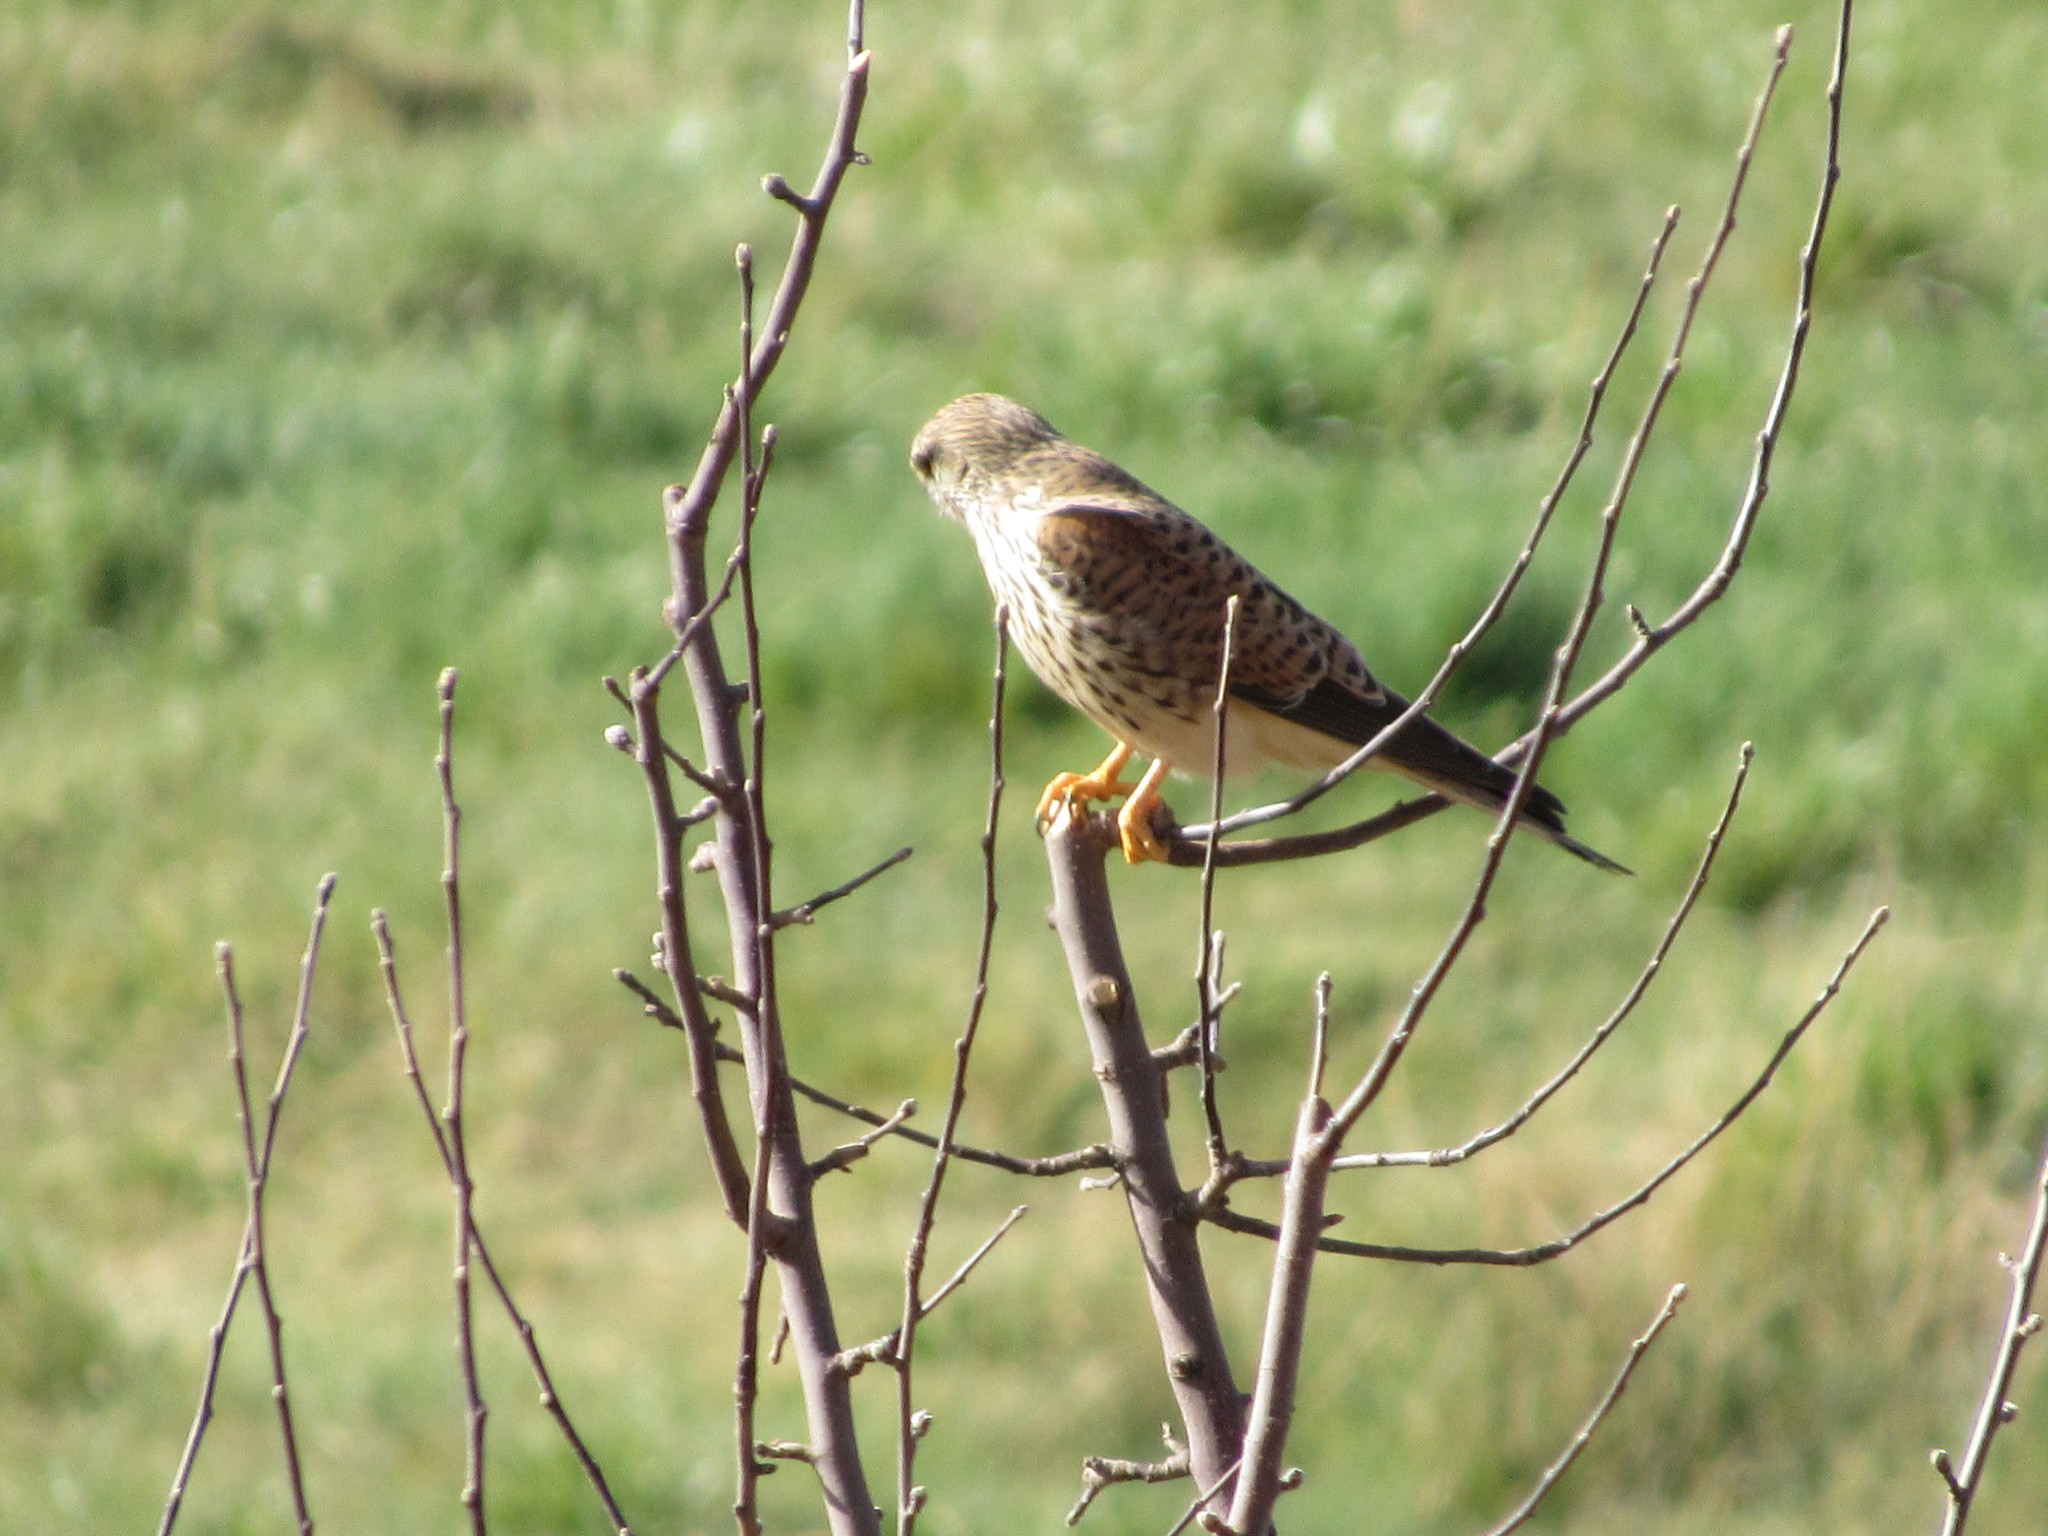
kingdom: Animalia
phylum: Chordata
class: Aves
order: Falconiformes
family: Falconidae
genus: Falco
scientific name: Falco tinnunculus
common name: Common kestrel
